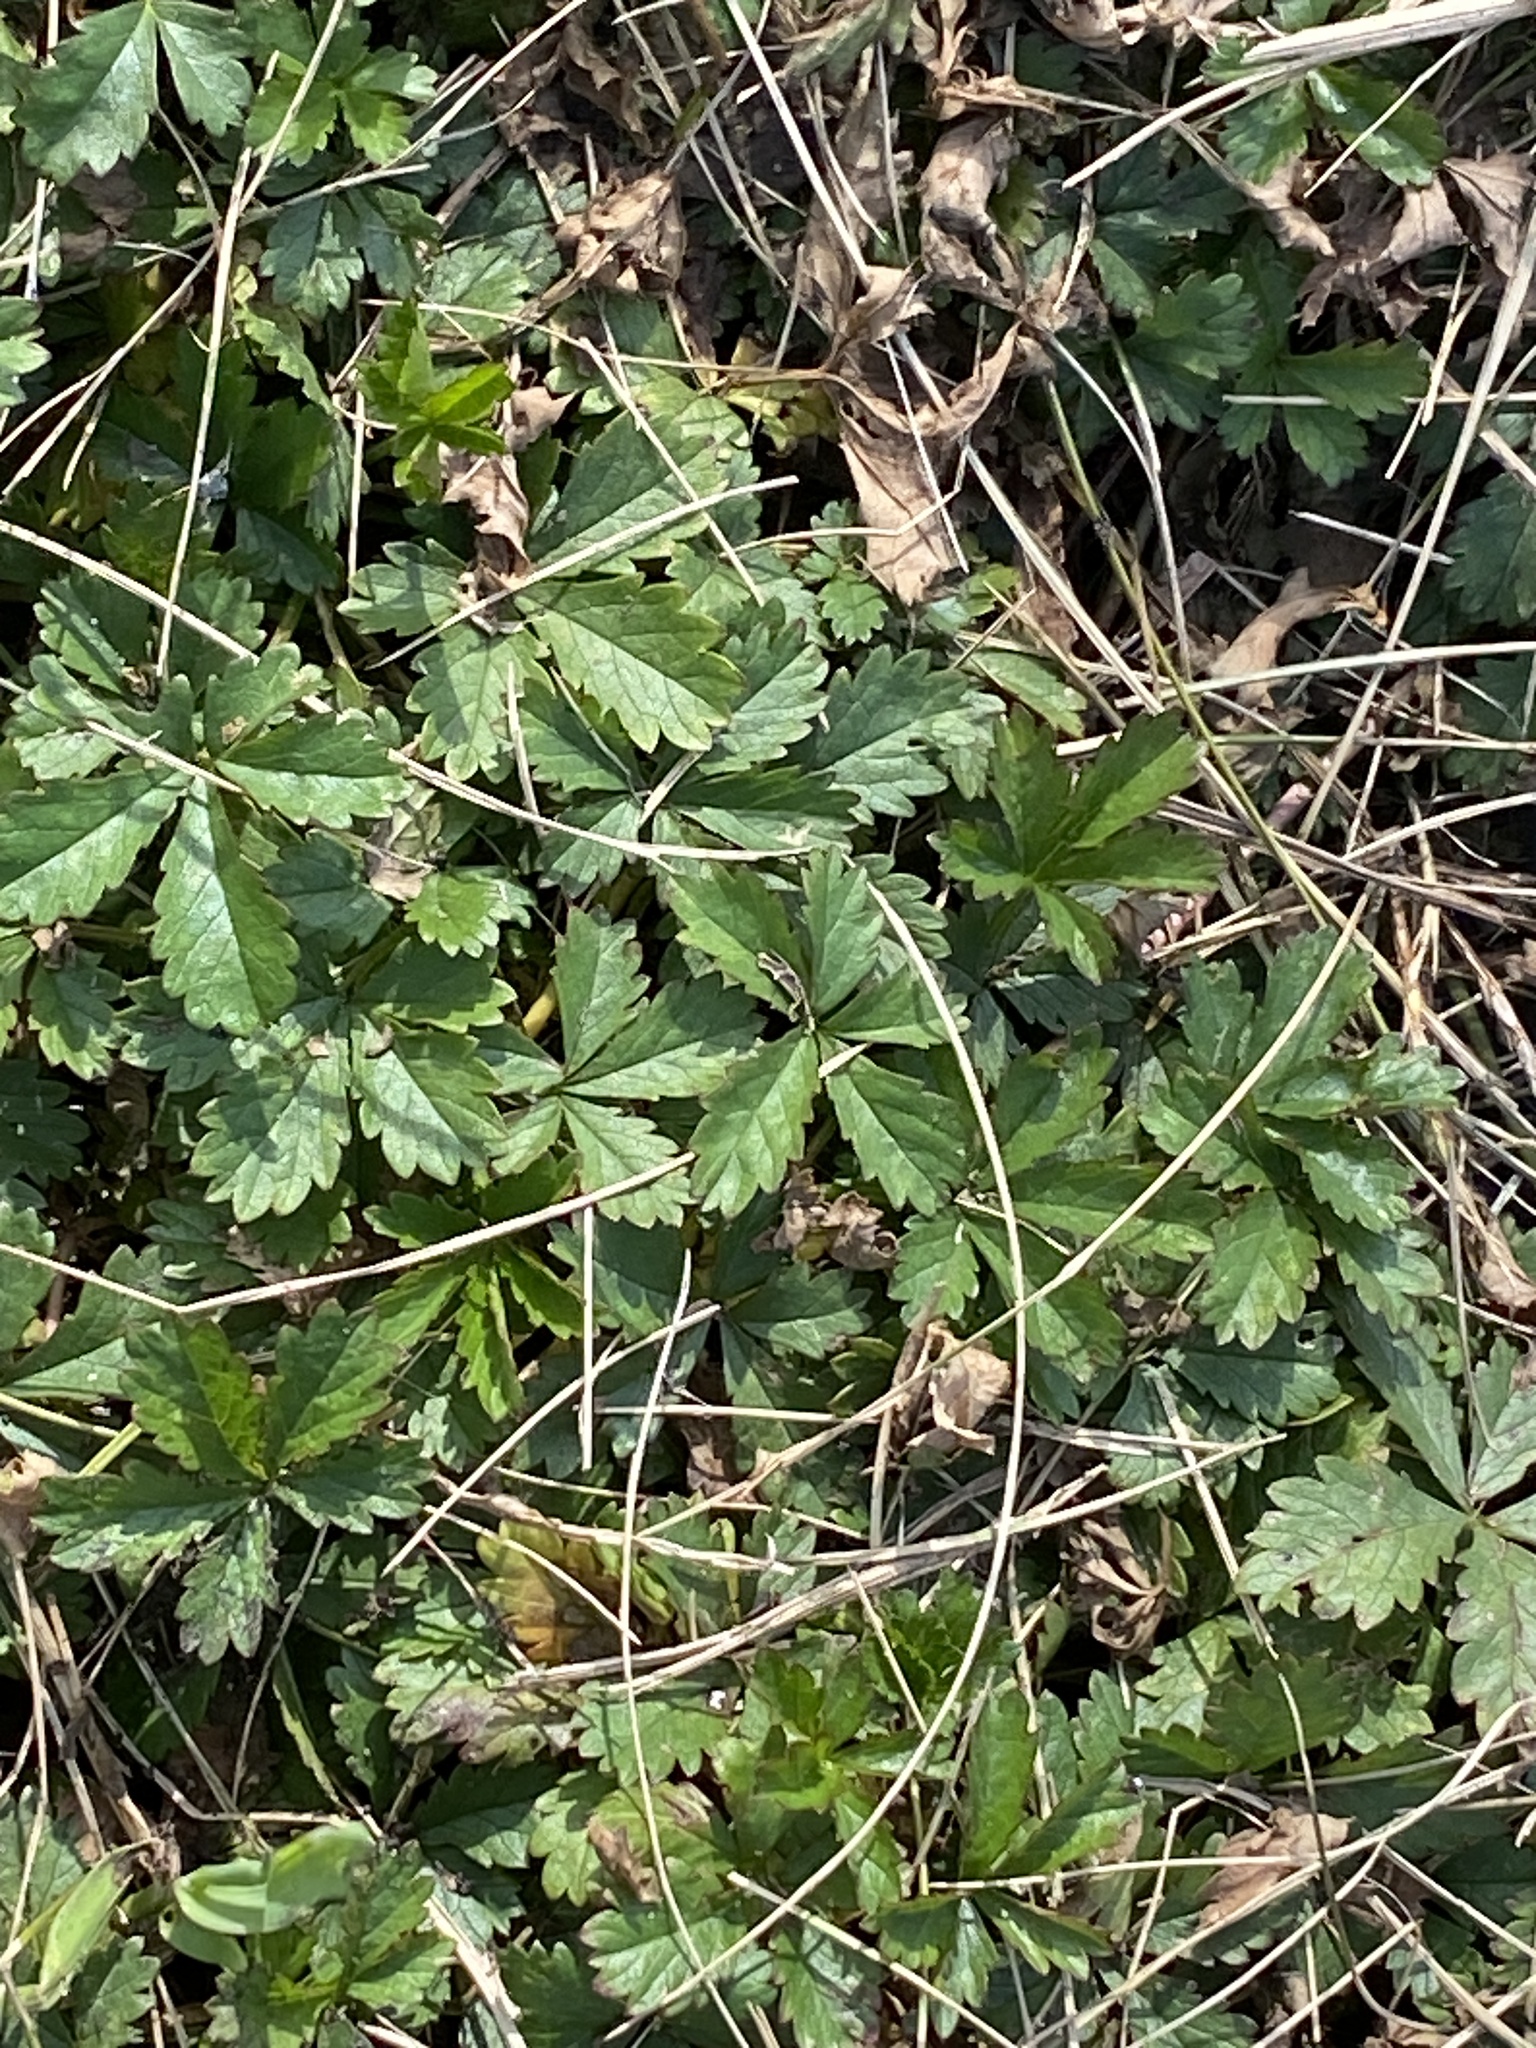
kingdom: Plantae
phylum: Tracheophyta
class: Magnoliopsida
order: Rosales
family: Rosaceae
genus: Potentilla
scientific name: Potentilla reptans
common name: Creeping cinquefoil
